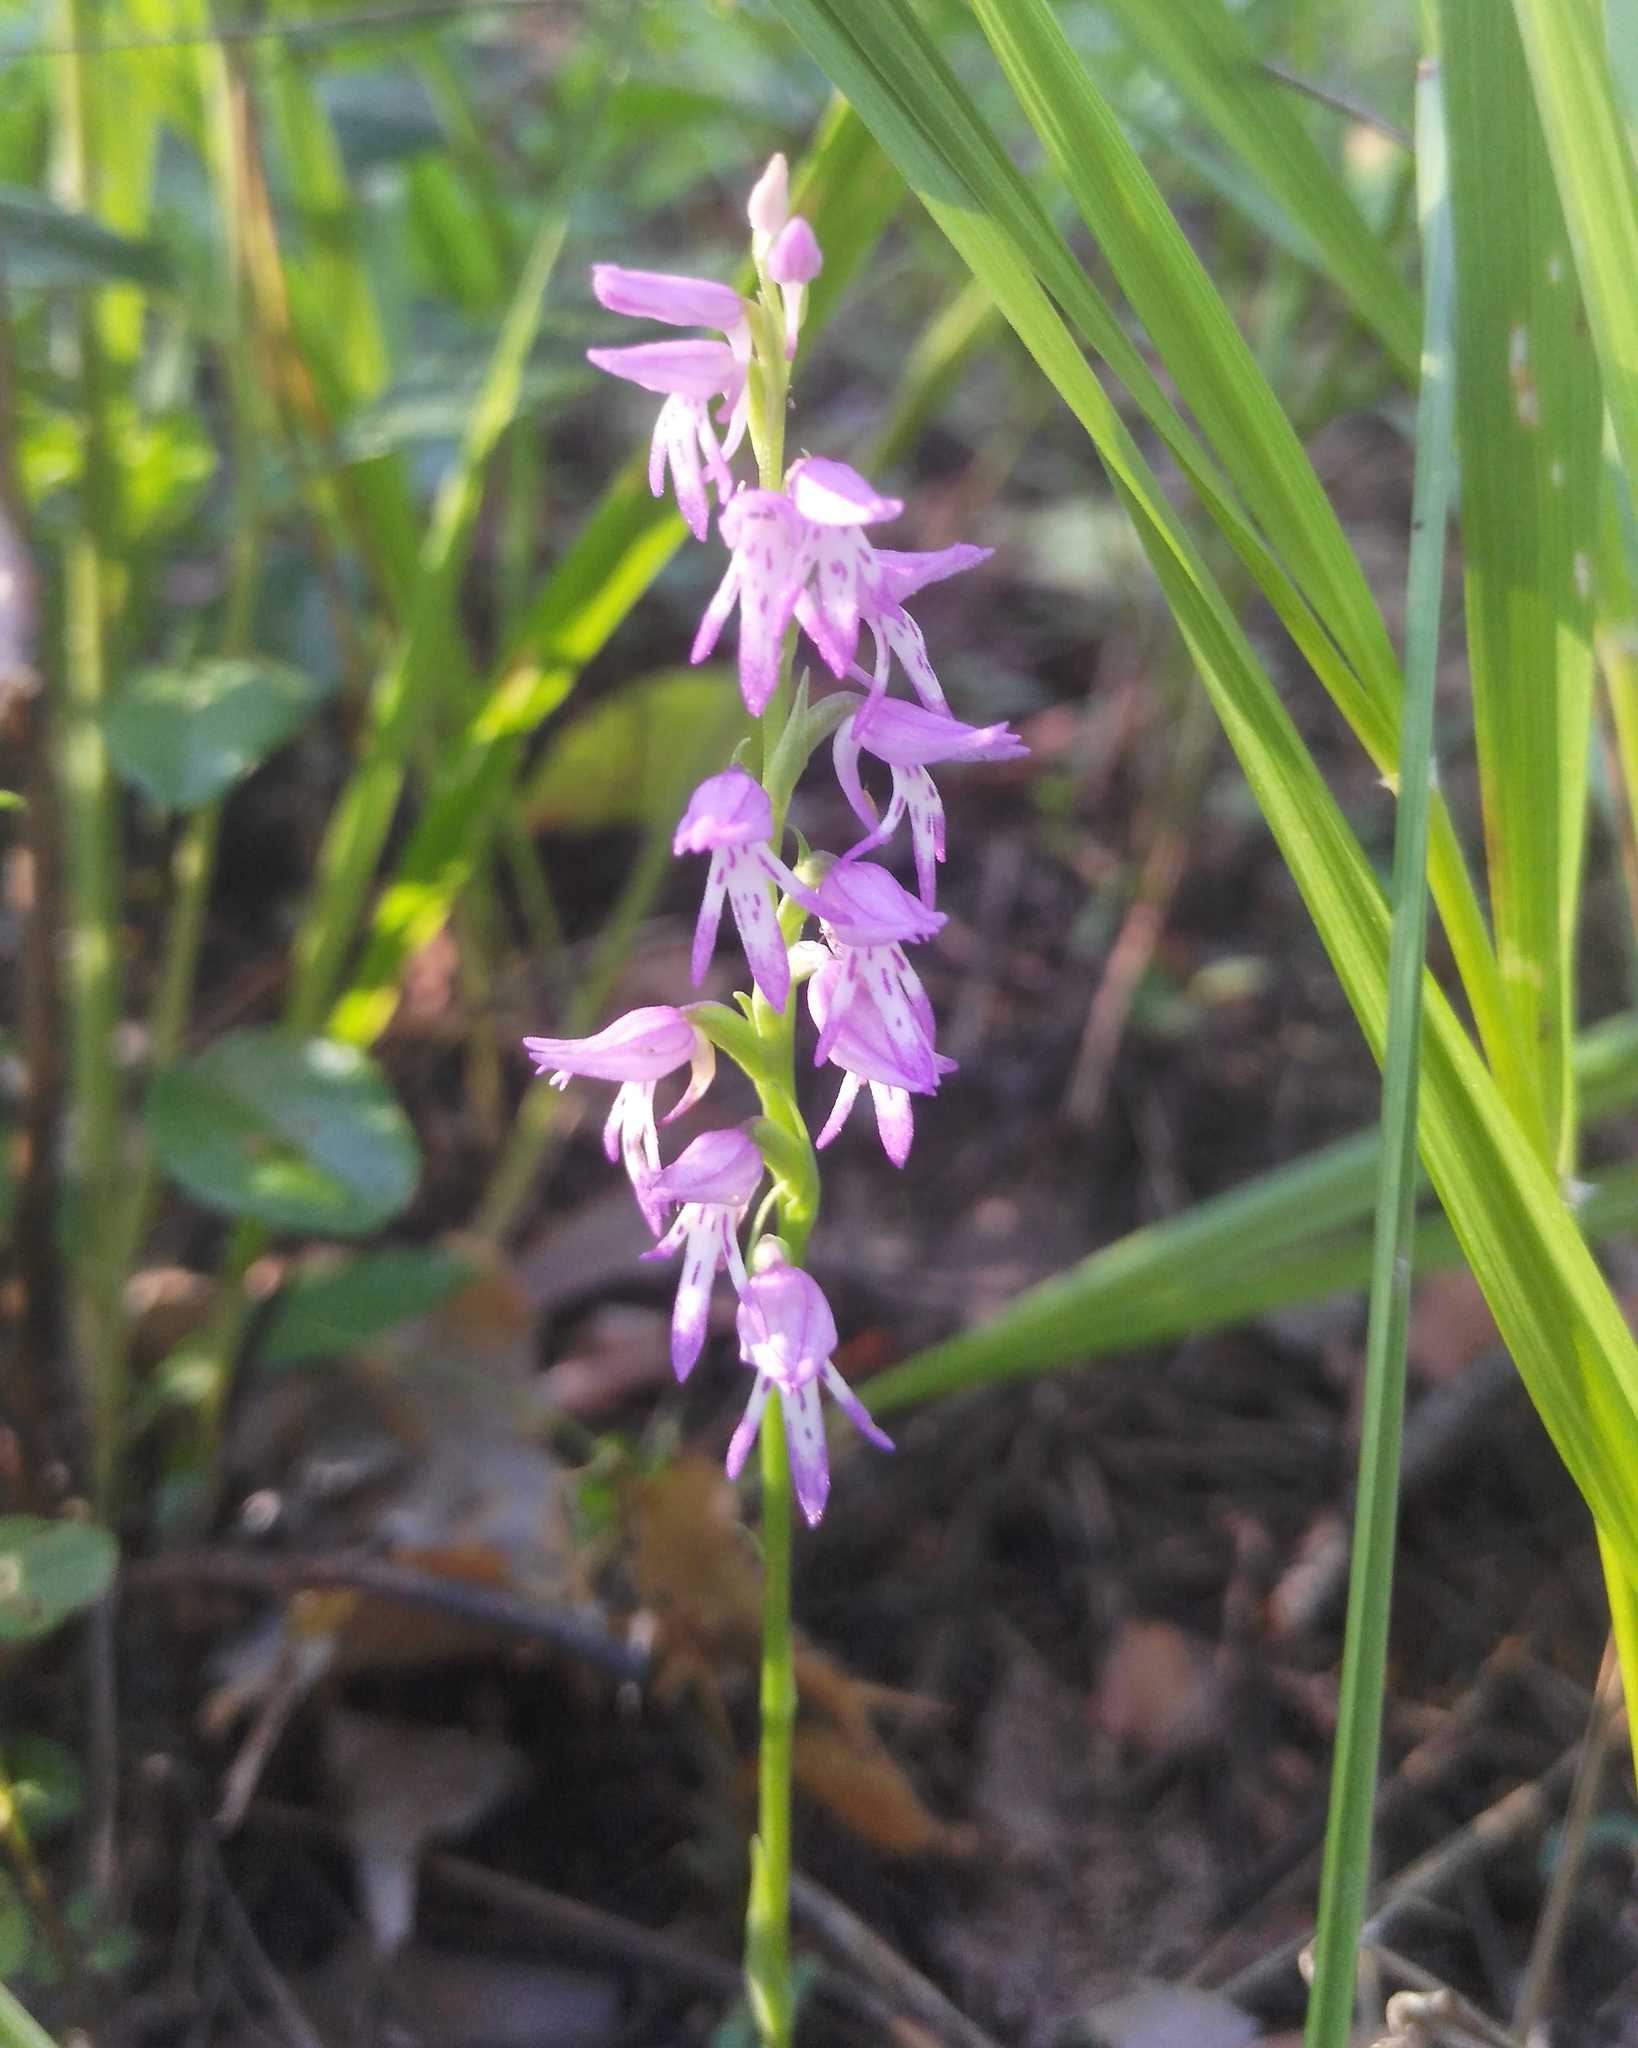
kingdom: Plantae
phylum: Tracheophyta
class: Liliopsida
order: Asparagales
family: Orchidaceae
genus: Hemipilia
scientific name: Hemipilia cucullata
